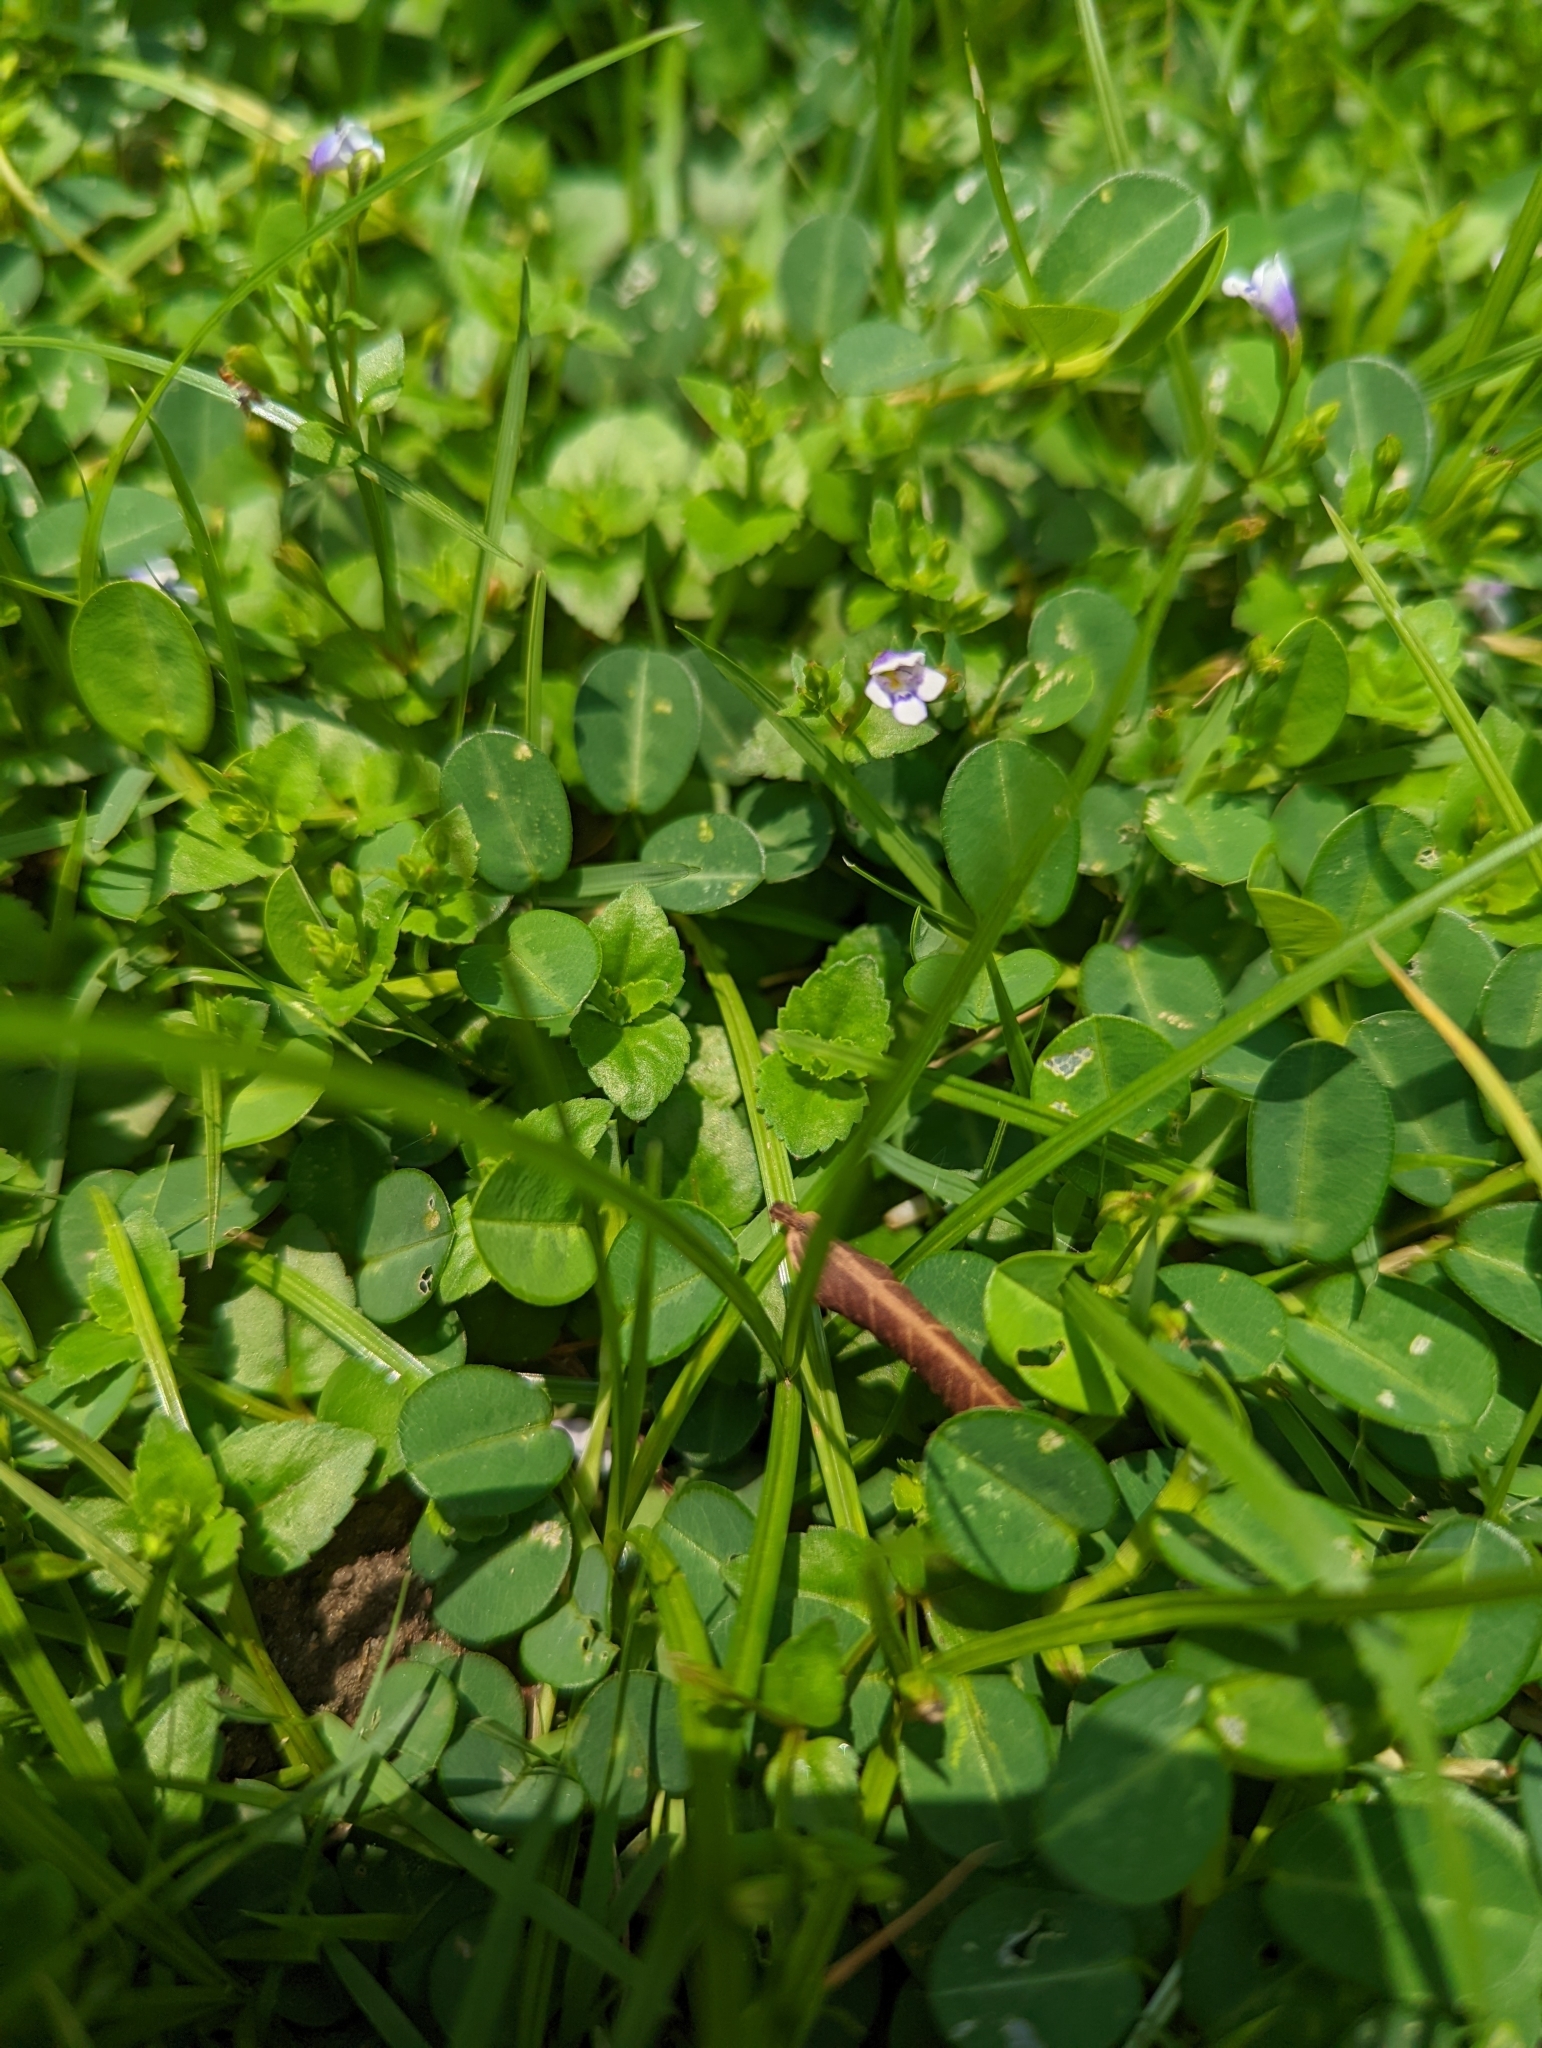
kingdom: Plantae
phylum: Tracheophyta
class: Magnoliopsida
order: Lamiales
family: Linderniaceae
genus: Torenia
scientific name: Torenia crustacea
